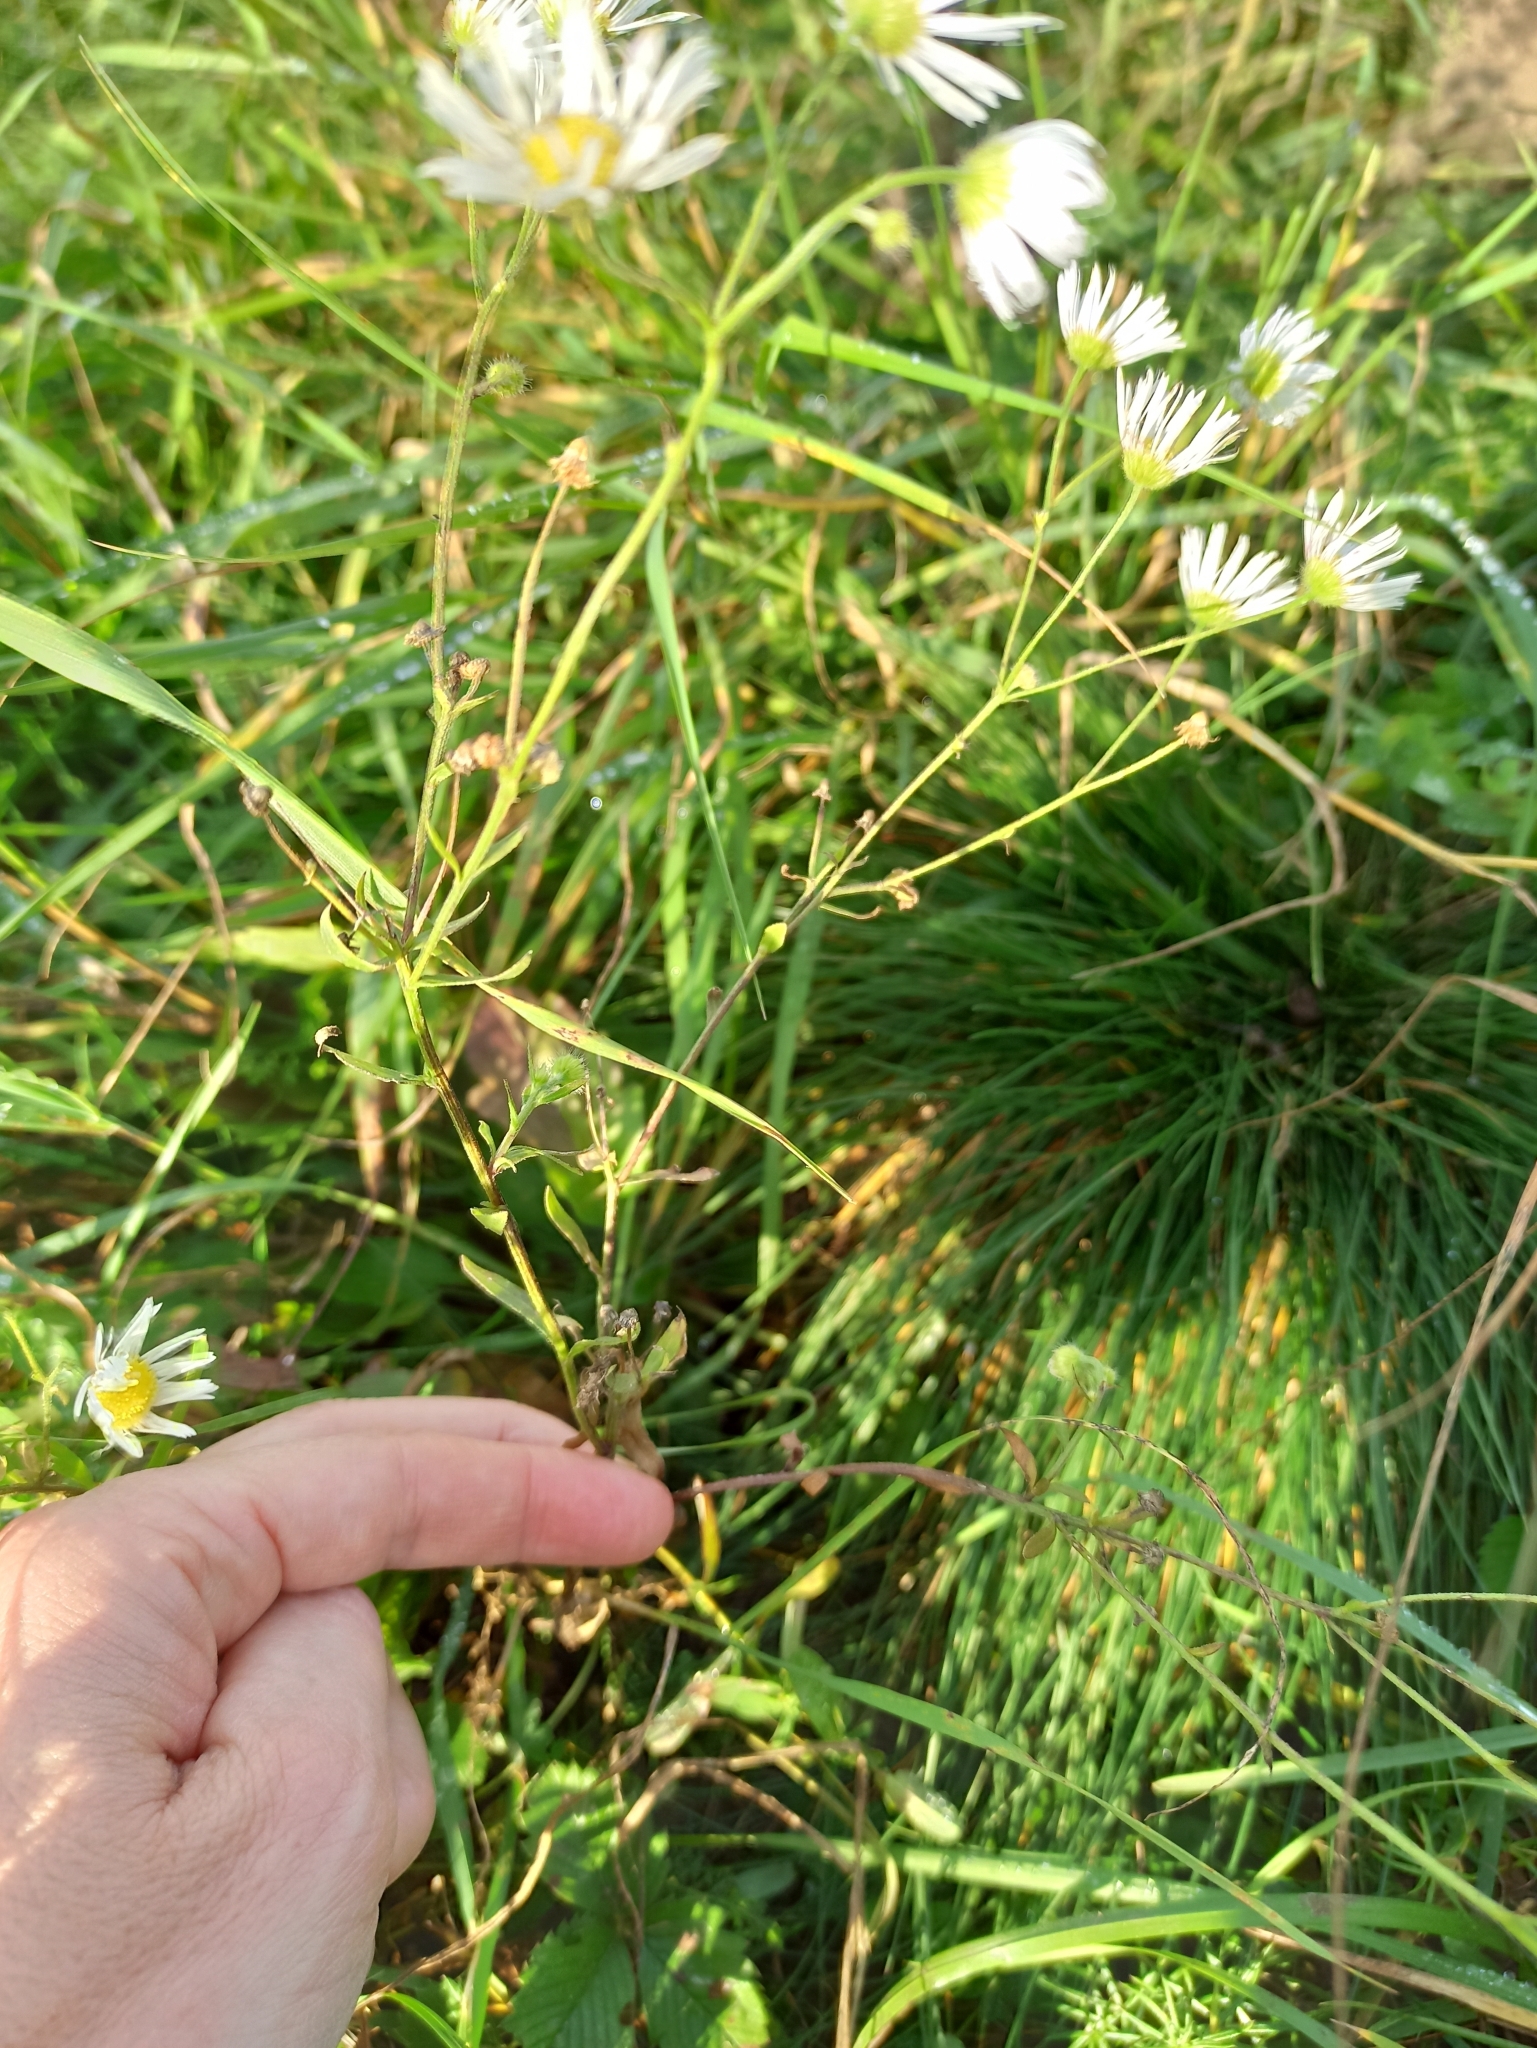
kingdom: Plantae
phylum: Tracheophyta
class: Magnoliopsida
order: Asterales
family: Asteraceae
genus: Erigeron
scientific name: Erigeron annuus
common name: Tall fleabane
